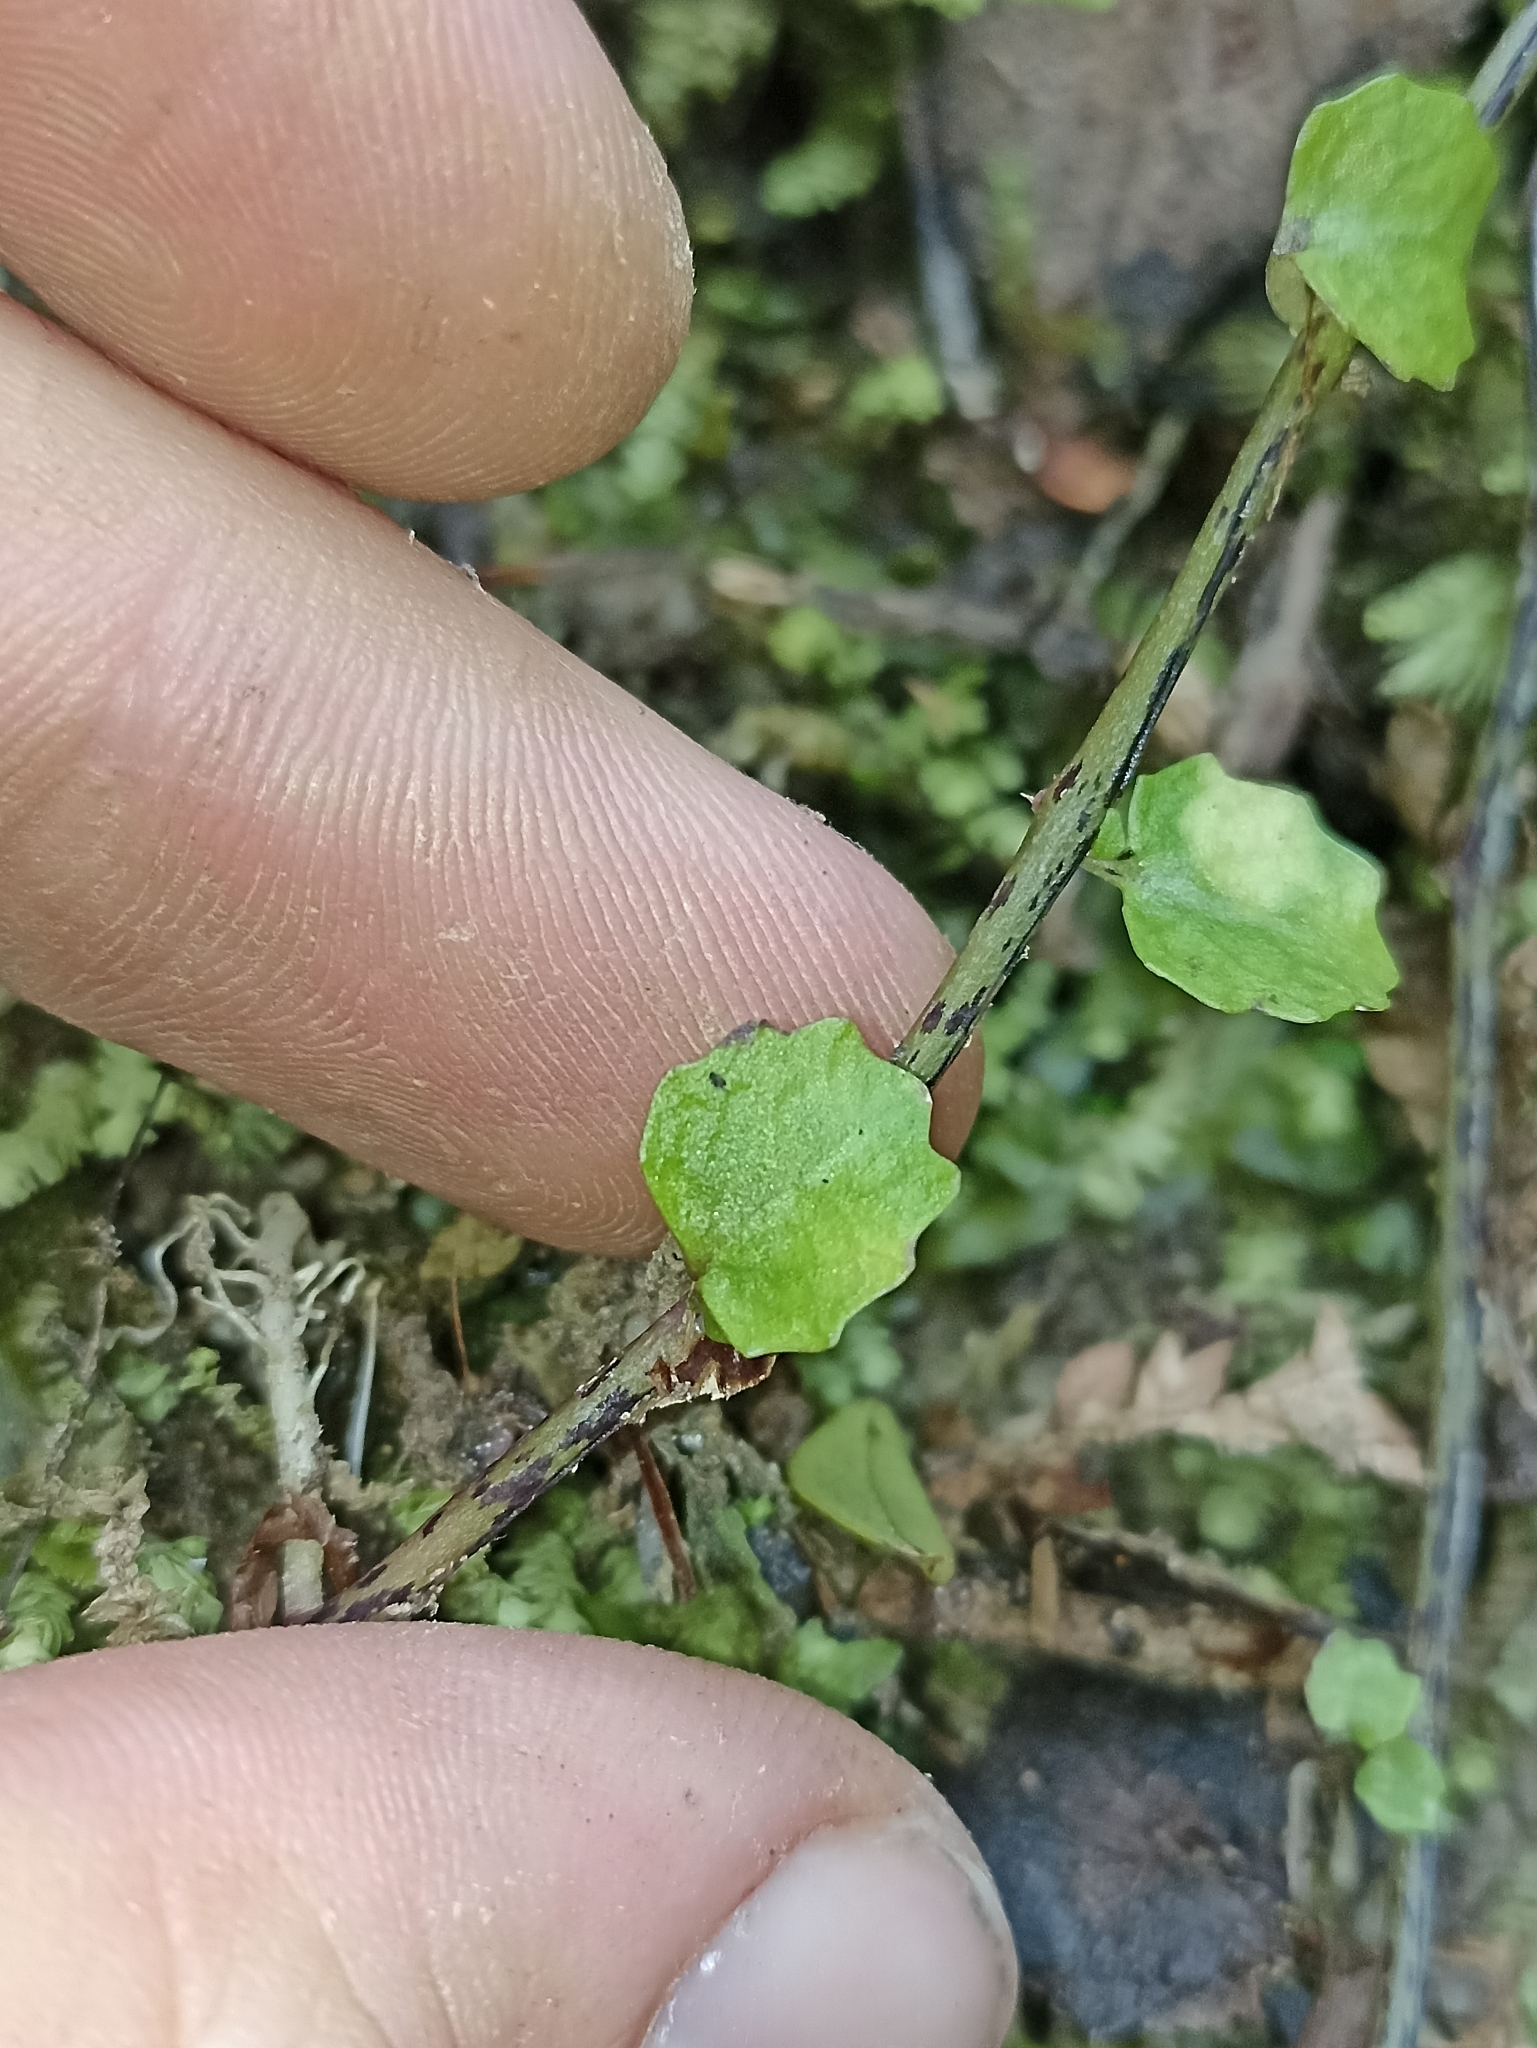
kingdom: Plantae
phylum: Tracheophyta
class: Magnoliopsida
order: Asterales
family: Campanulaceae
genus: Lobelia
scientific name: Lobelia angulata
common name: Lawn lobelia
